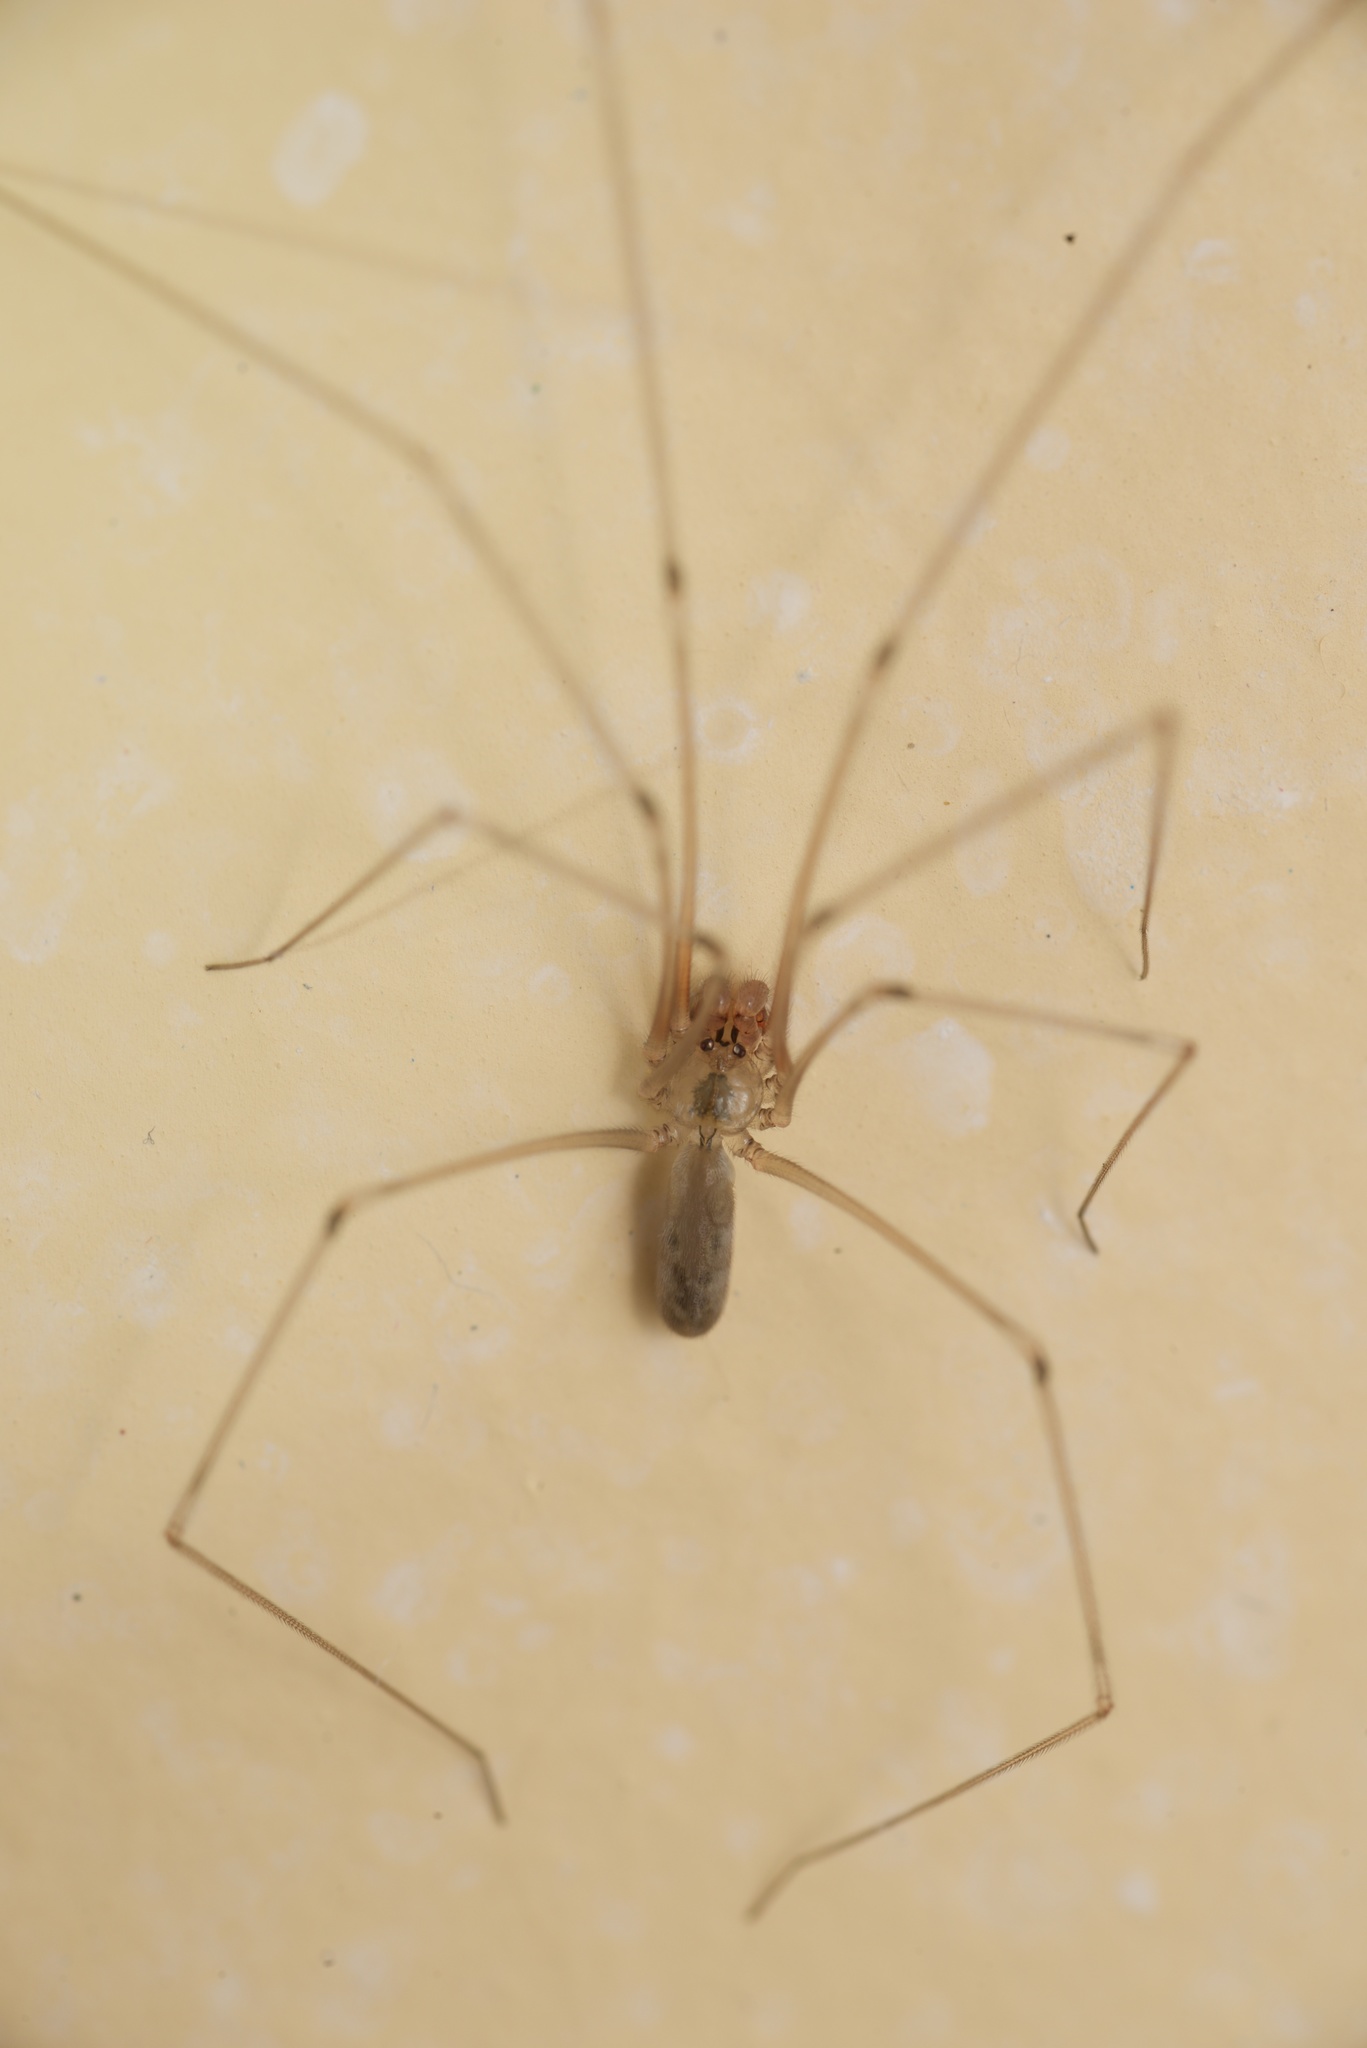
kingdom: Animalia
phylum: Arthropoda
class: Arachnida
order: Araneae
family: Pholcidae
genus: Pholcus
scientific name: Pholcus phalangioides
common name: Longbodied cellar spider
